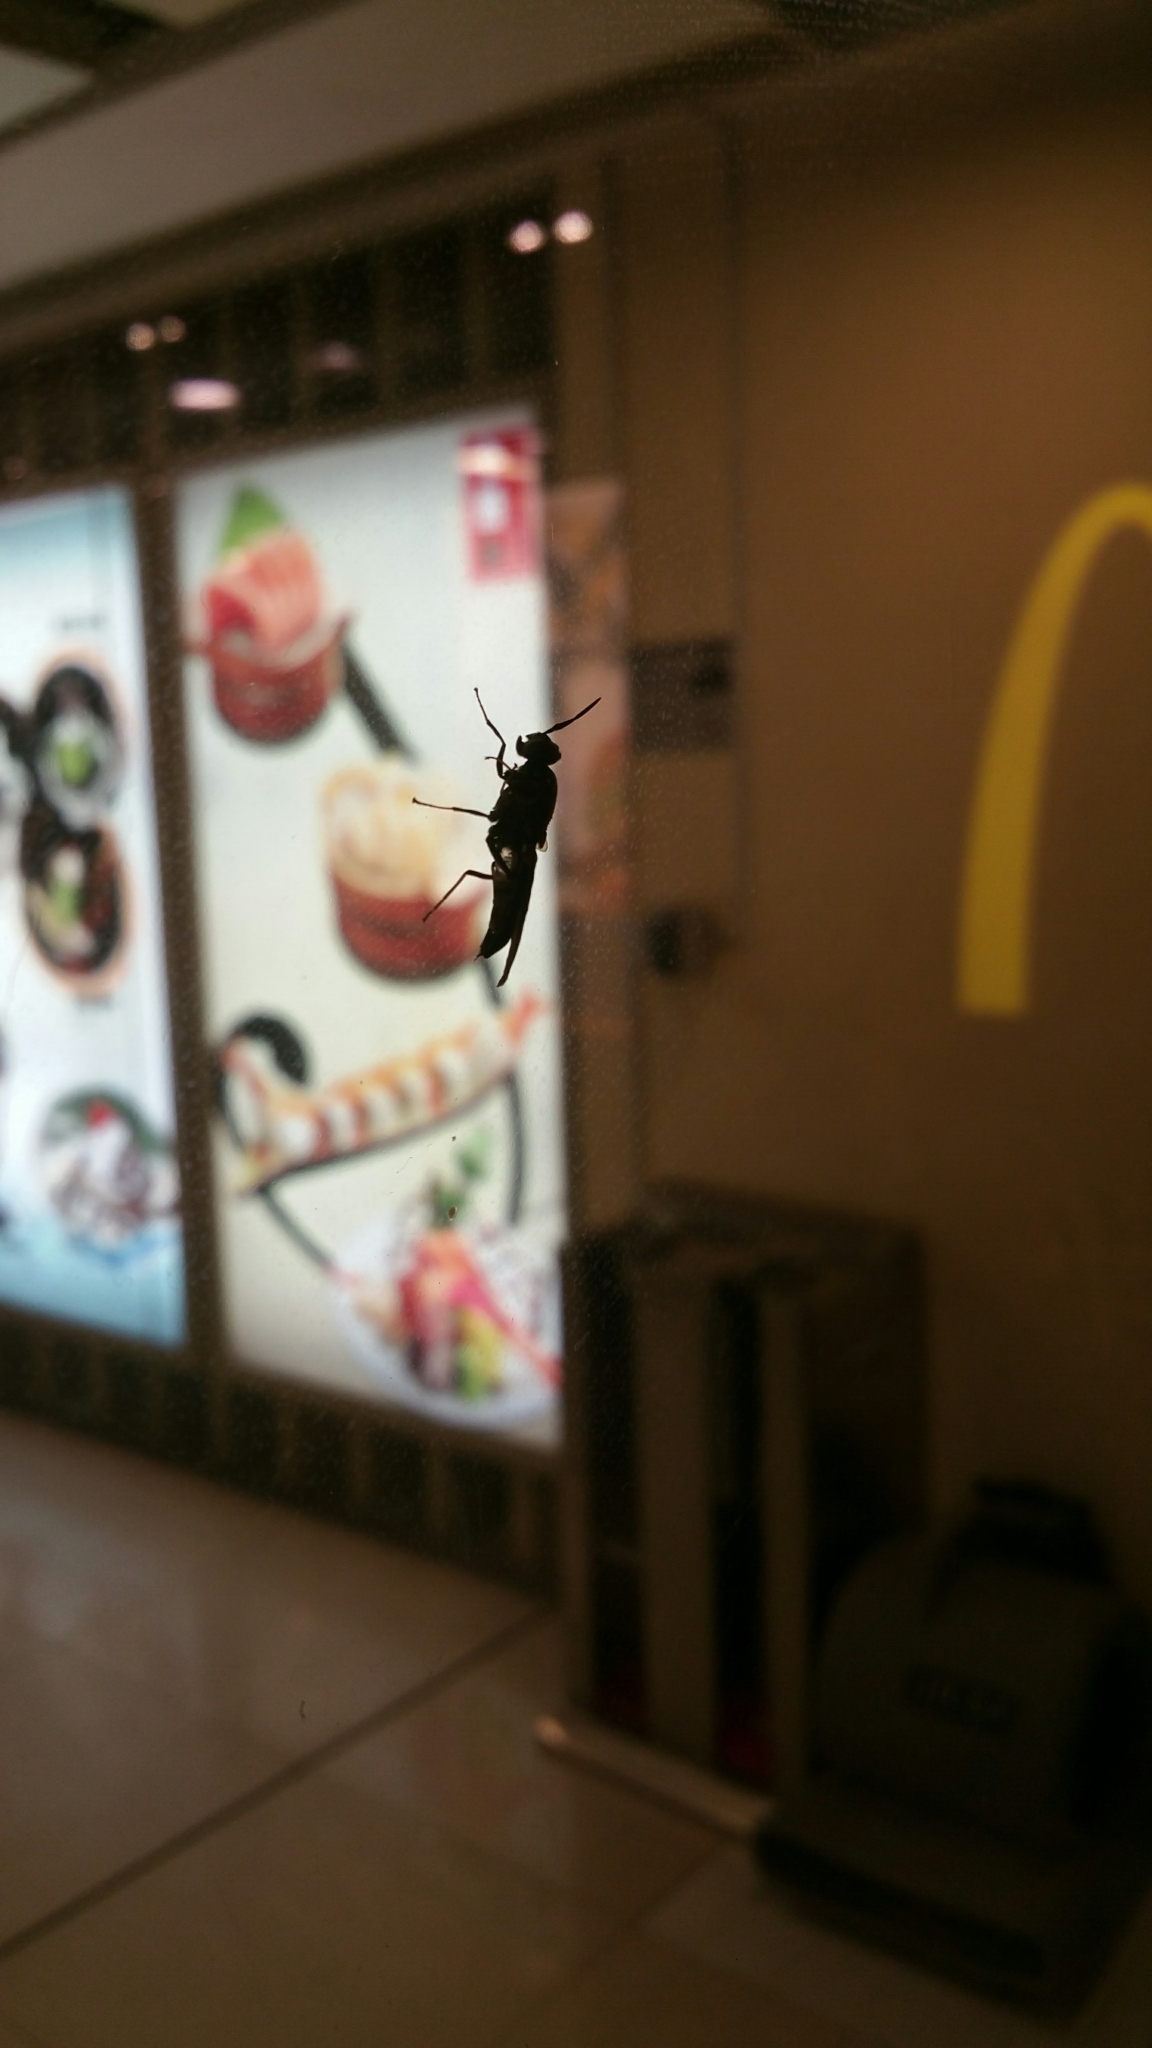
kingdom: Animalia
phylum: Arthropoda
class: Insecta
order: Diptera
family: Stratiomyidae
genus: Hermetia
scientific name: Hermetia illucens
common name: Black soldier fly
